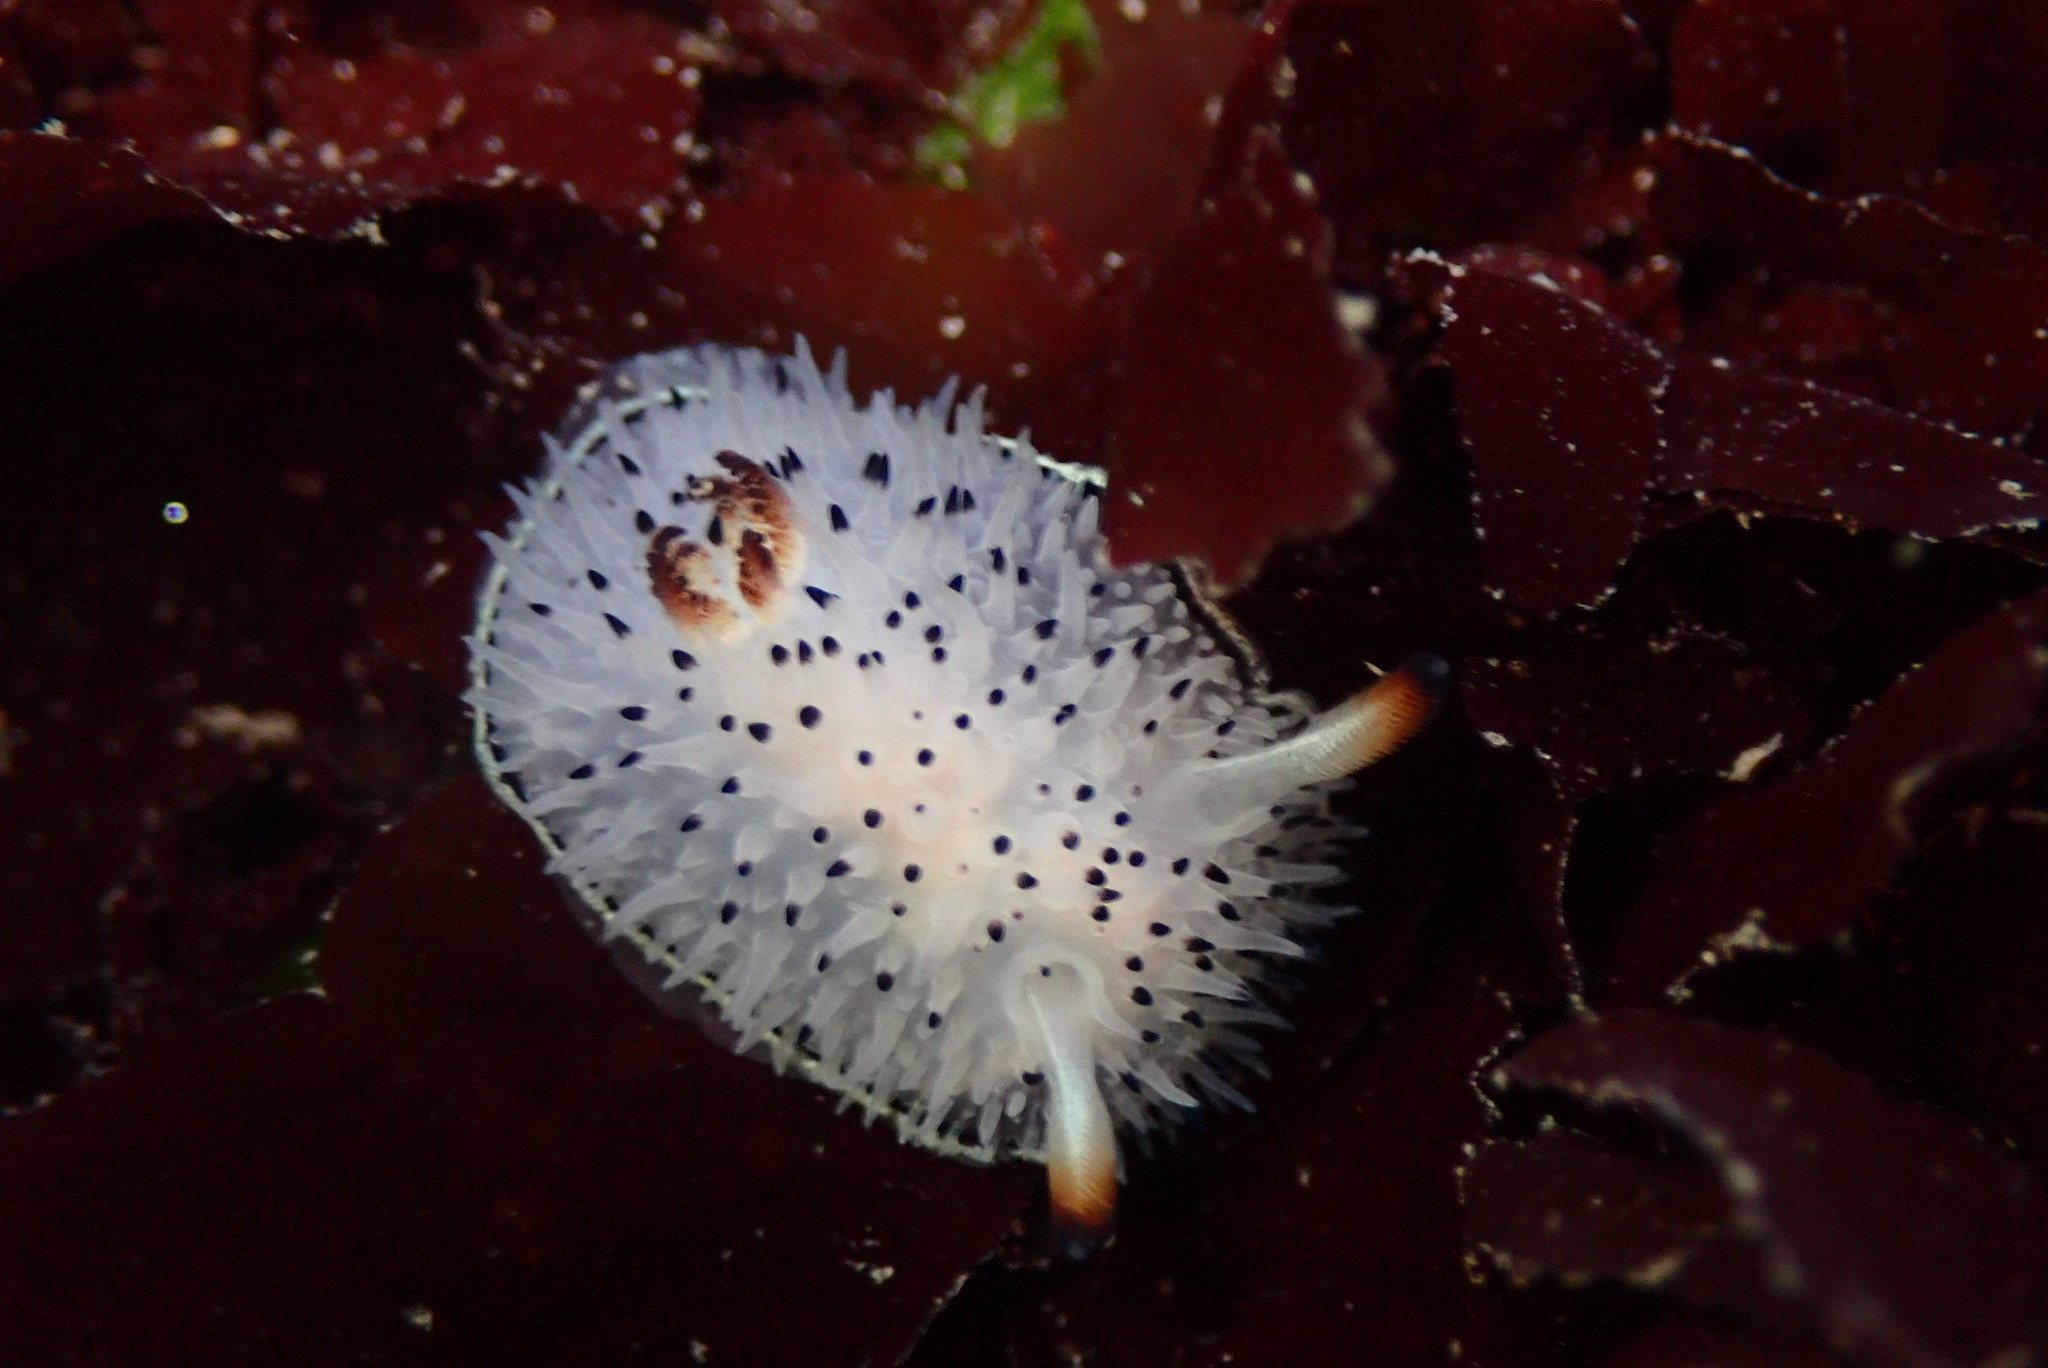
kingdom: Animalia
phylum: Mollusca
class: Gastropoda
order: Nudibranchia
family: Onchidorididae
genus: Acanthodoris
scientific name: Acanthodoris rhodoceras
